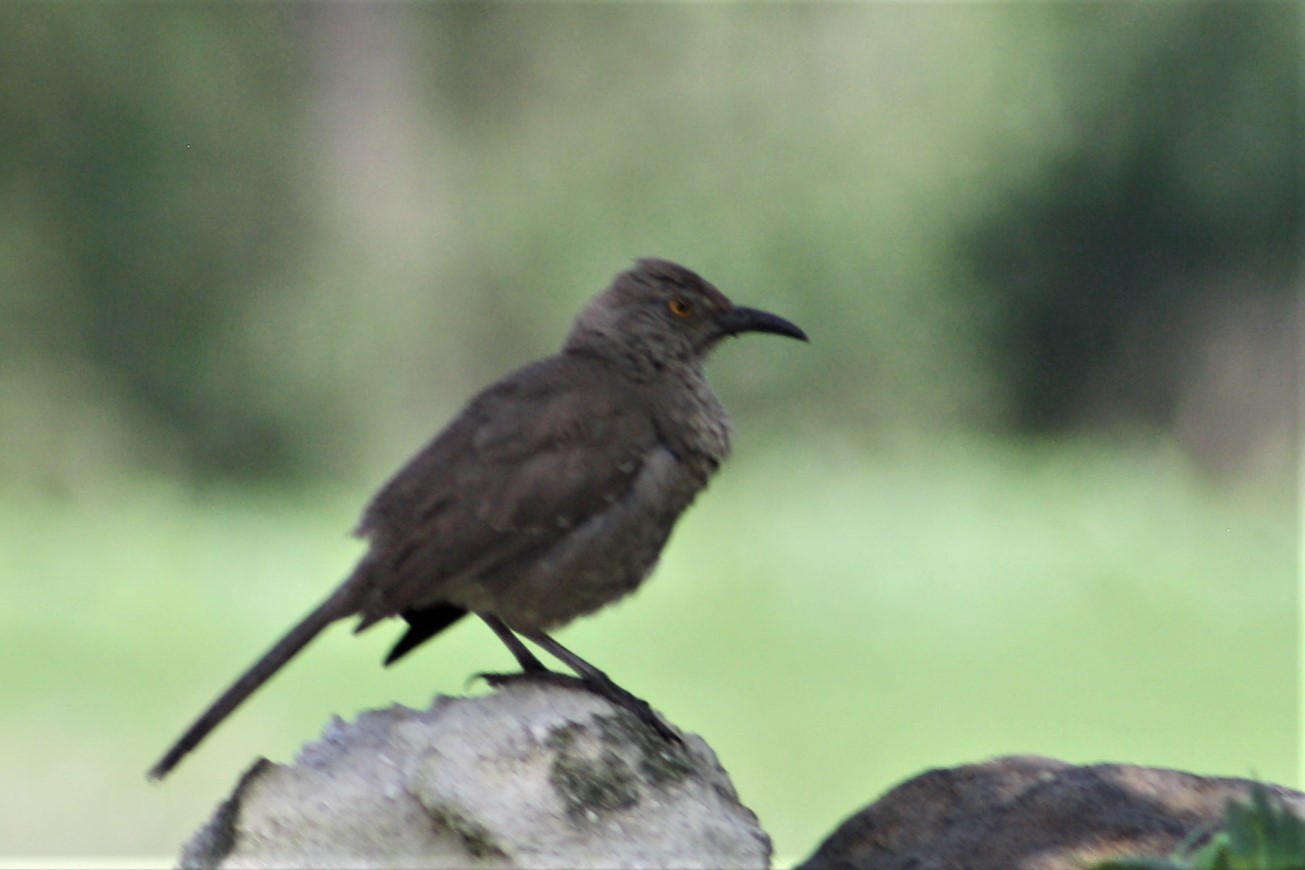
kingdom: Animalia
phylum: Chordata
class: Aves
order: Passeriformes
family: Mimidae
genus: Toxostoma
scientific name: Toxostoma curvirostre
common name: Curve-billed thrasher
